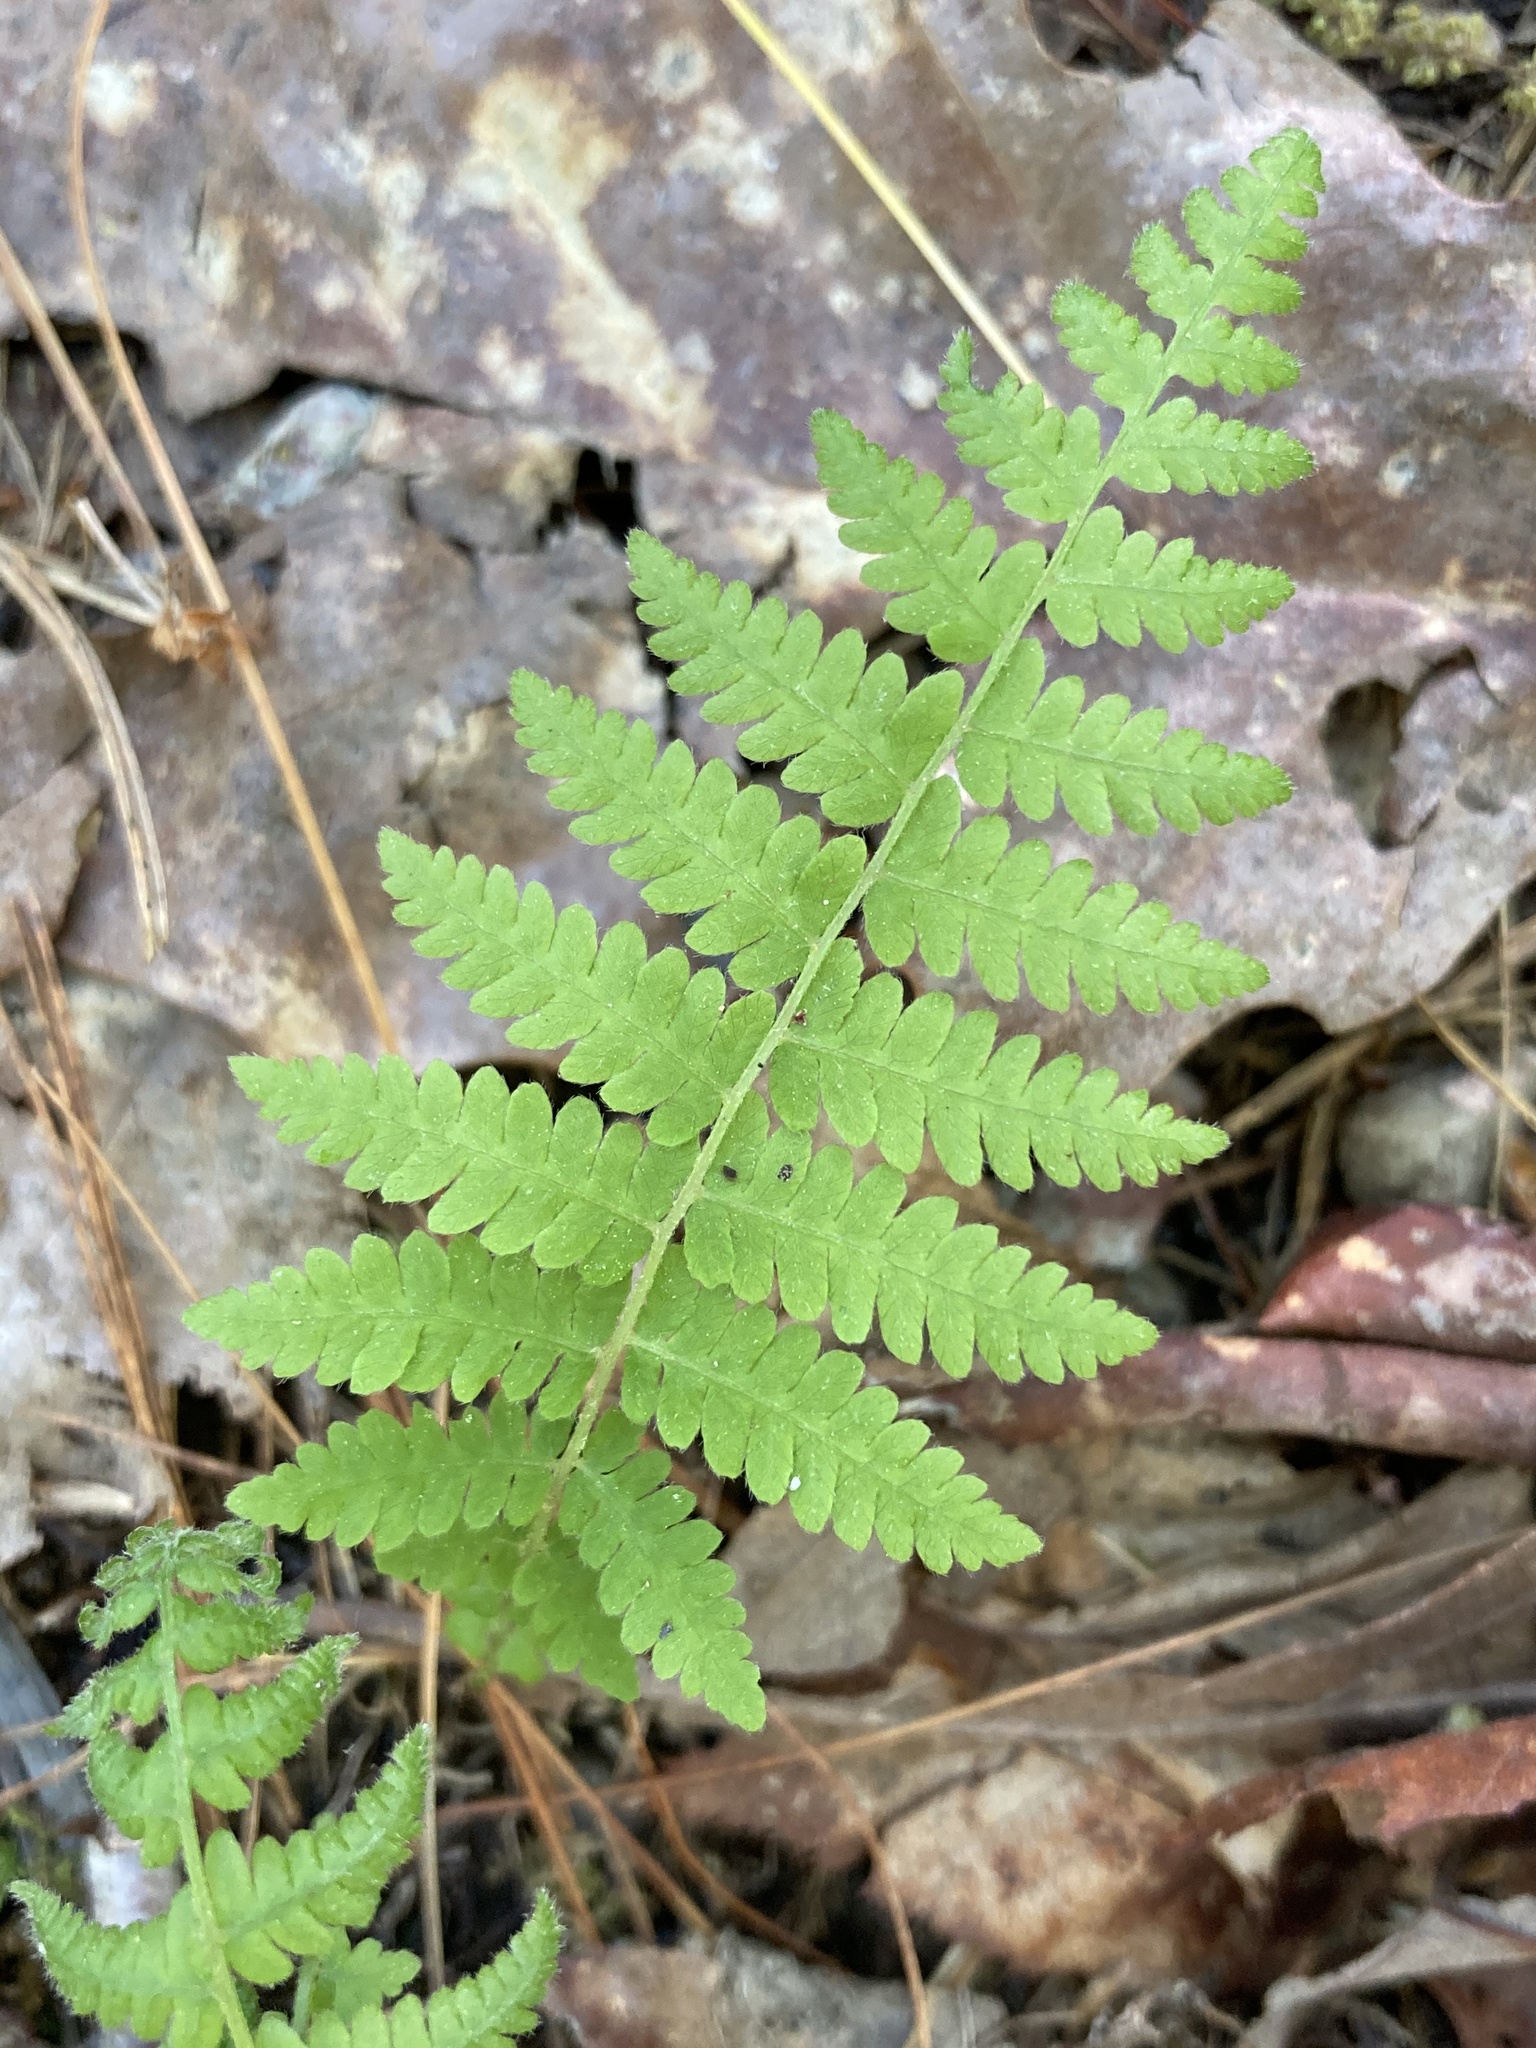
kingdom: Plantae
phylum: Tracheophyta
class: Polypodiopsida
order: Polypodiales
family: Thelypteridaceae
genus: Amauropelta
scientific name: Amauropelta noveboracensis
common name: New york fern
